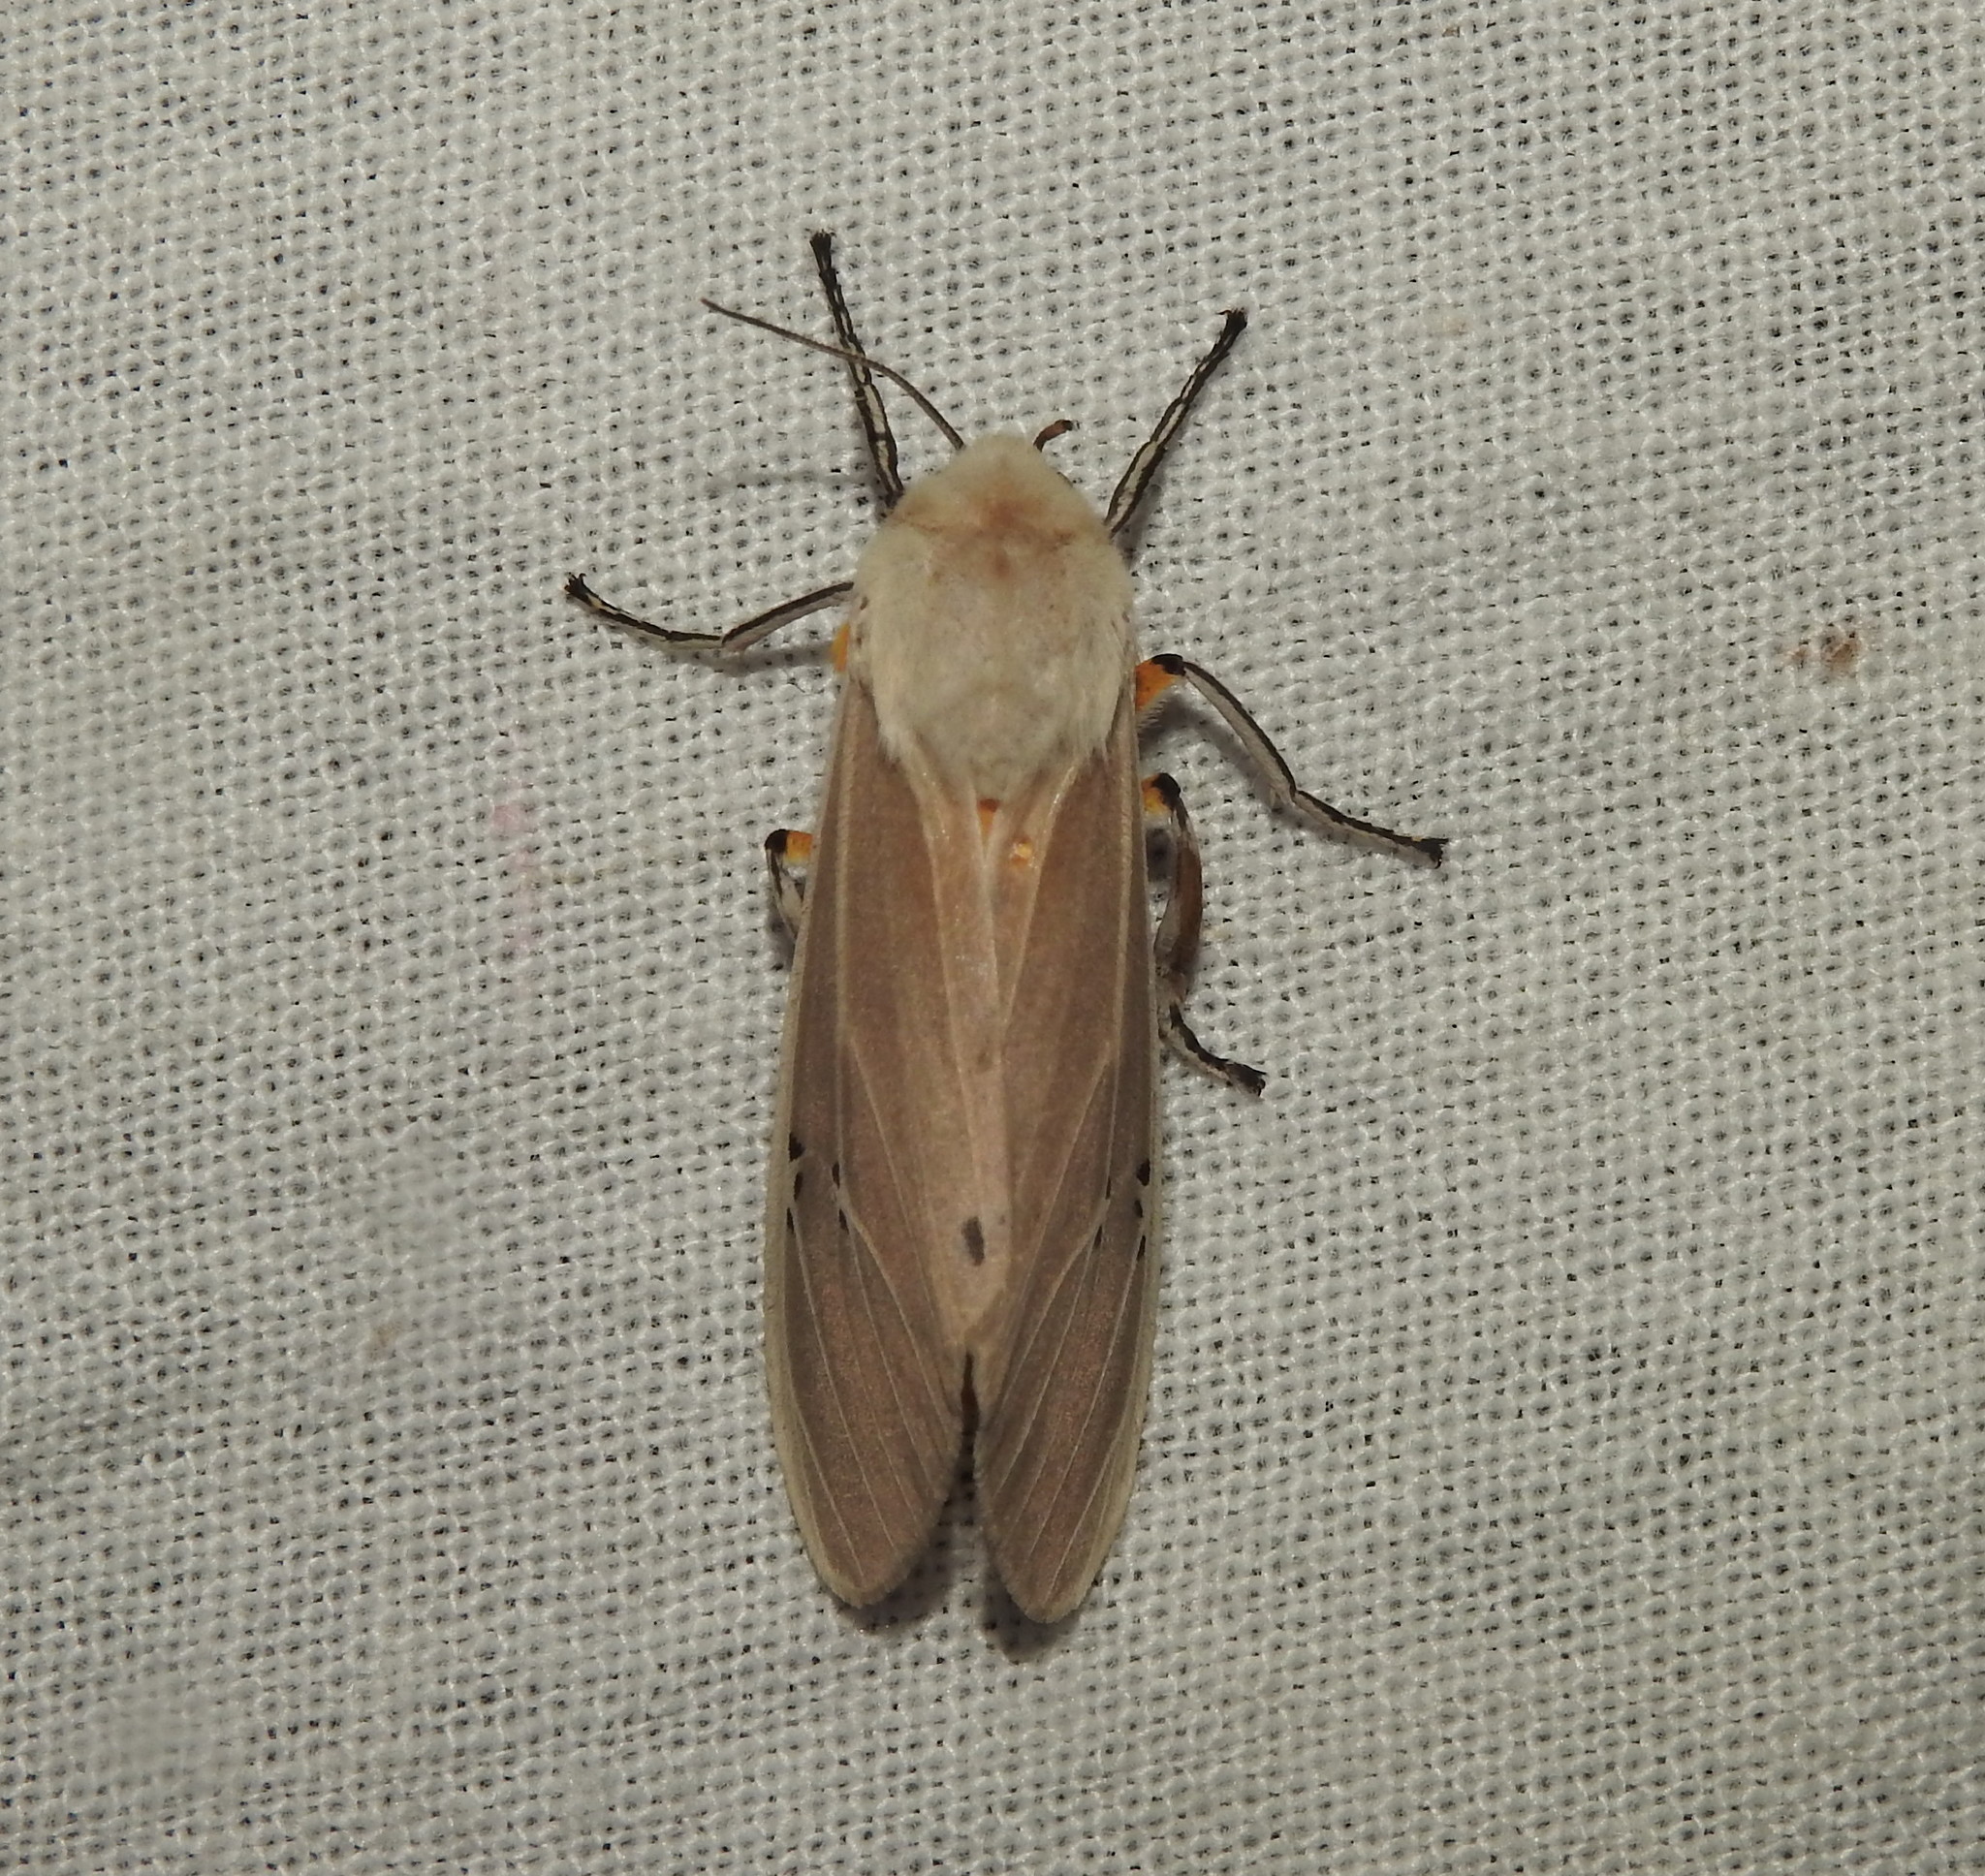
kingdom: Animalia
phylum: Arthropoda
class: Insecta
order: Lepidoptera
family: Erebidae
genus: Creatonotos
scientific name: Creatonotos transiens
